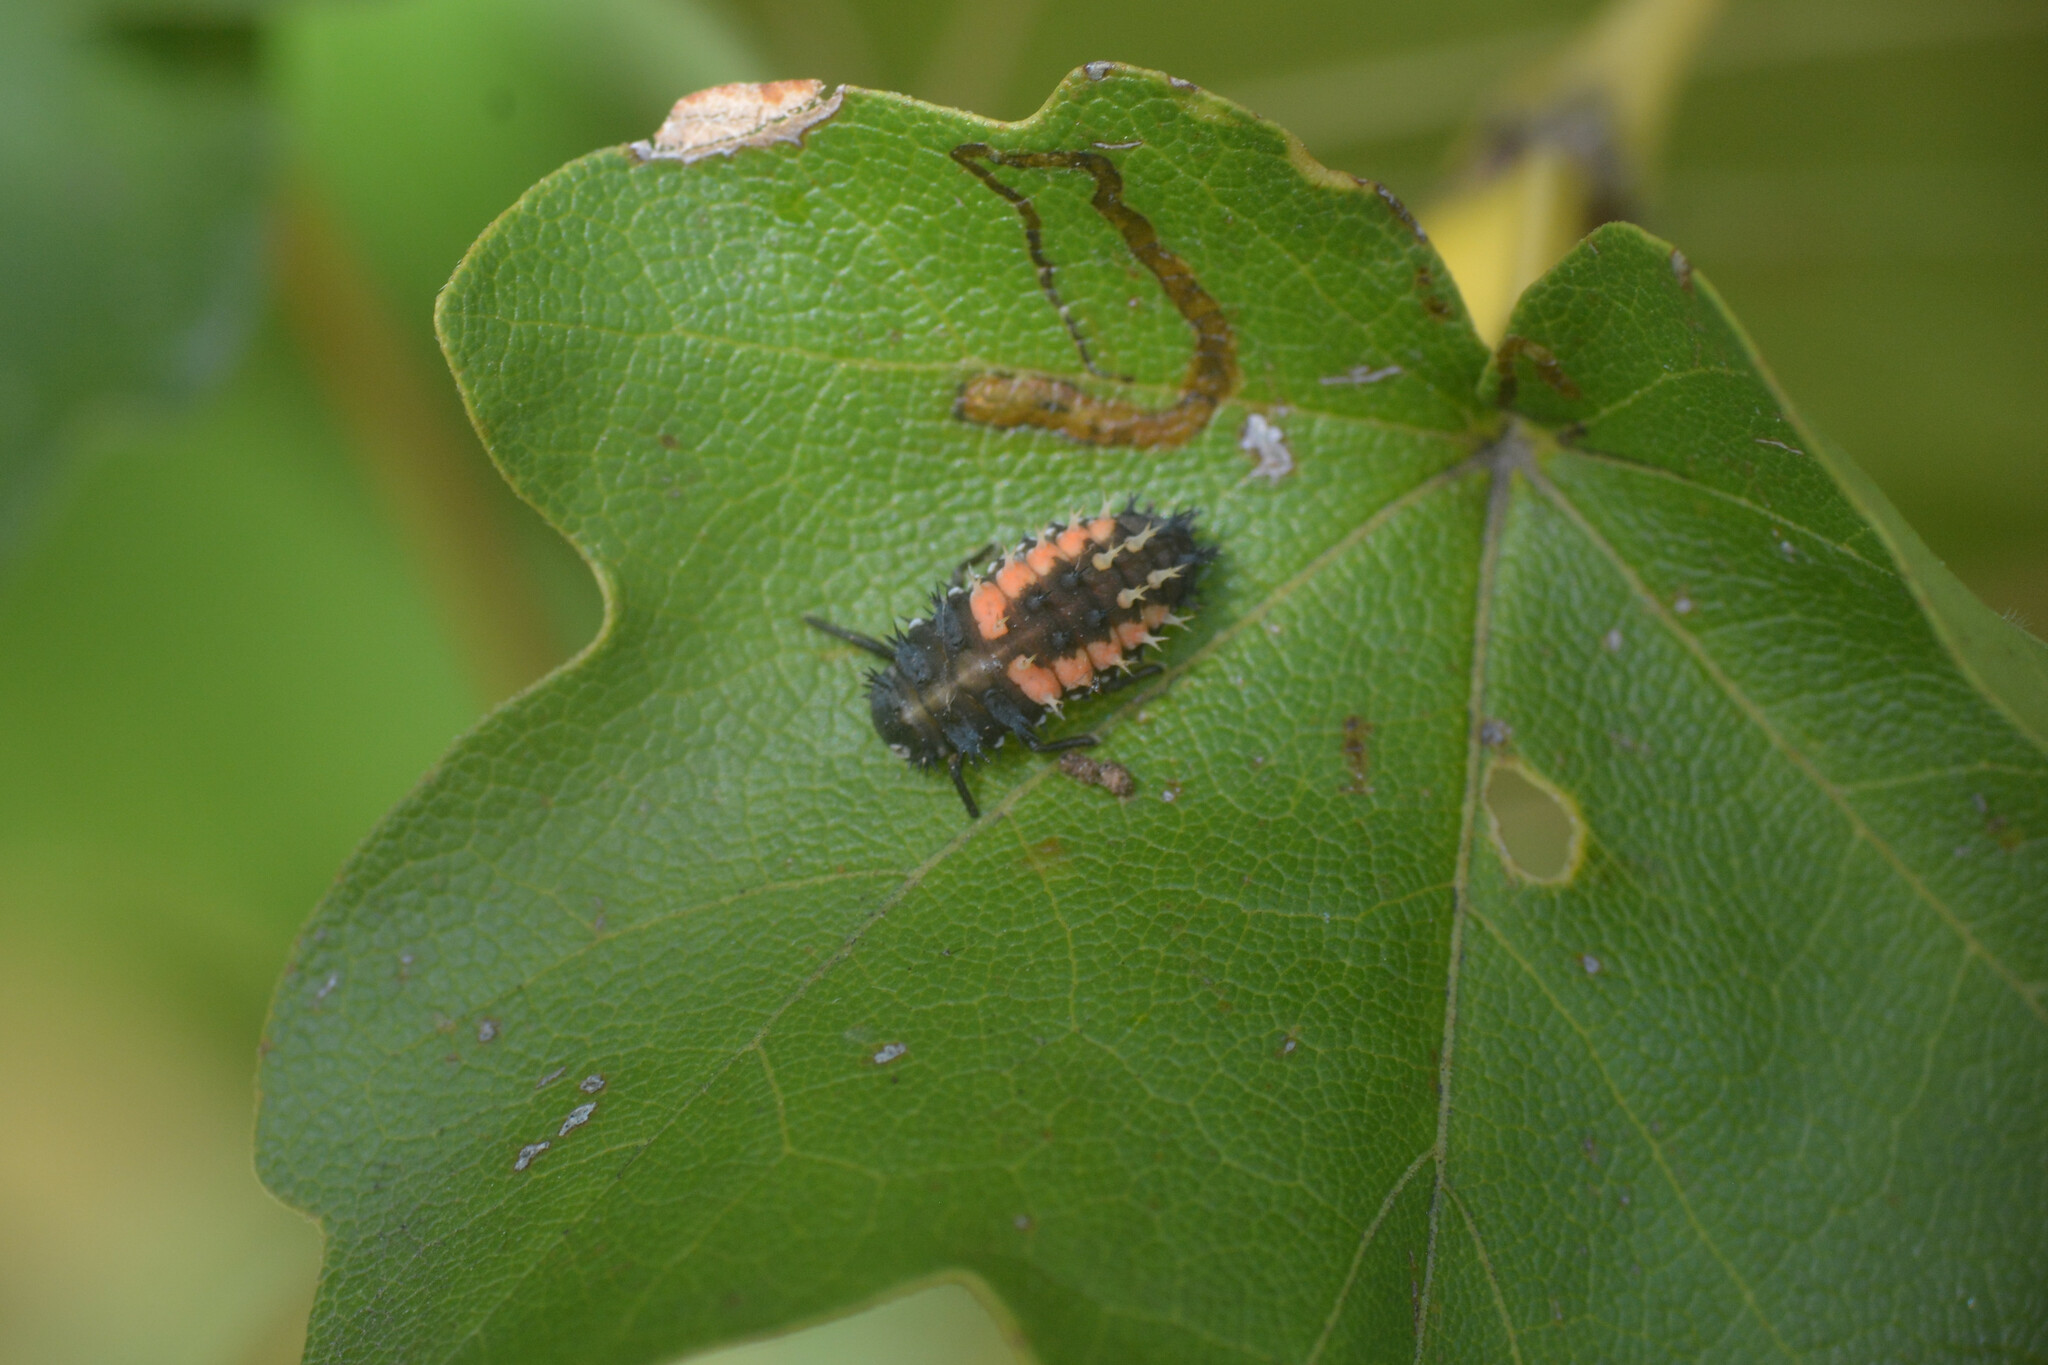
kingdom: Animalia
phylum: Arthropoda
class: Insecta
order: Coleoptera
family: Coccinellidae
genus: Harmonia
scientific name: Harmonia axyridis
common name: Harlequin ladybird
